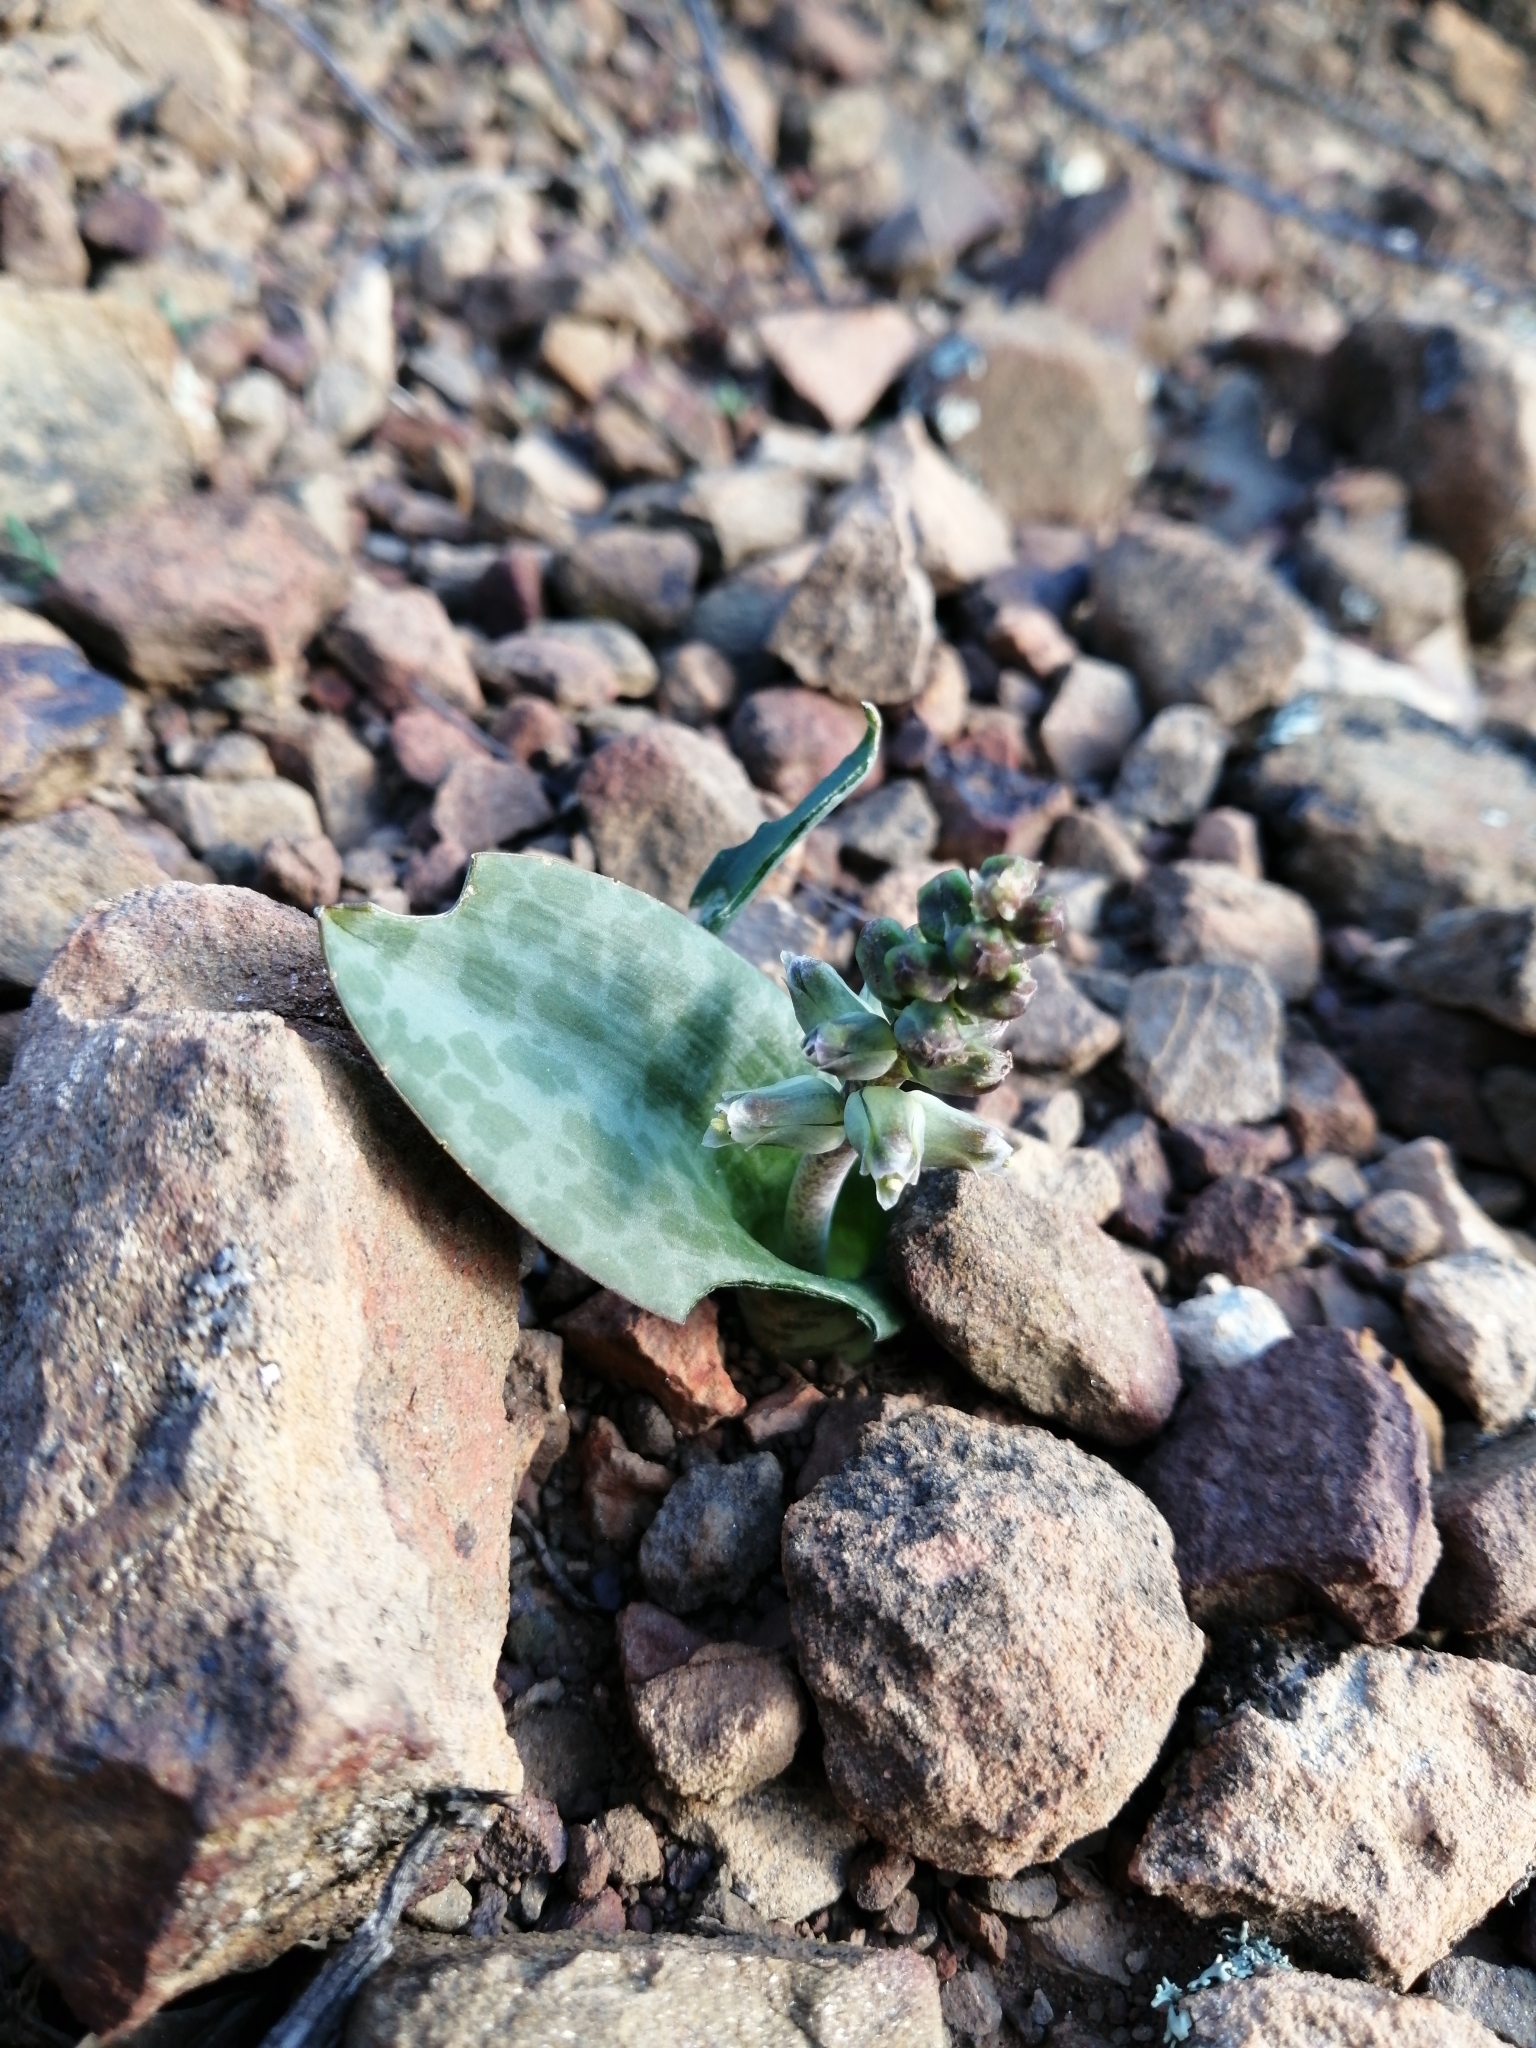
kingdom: Plantae
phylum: Tracheophyta
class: Liliopsida
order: Asparagales
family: Asparagaceae
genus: Lachenalia
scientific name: Lachenalia aurioliae
